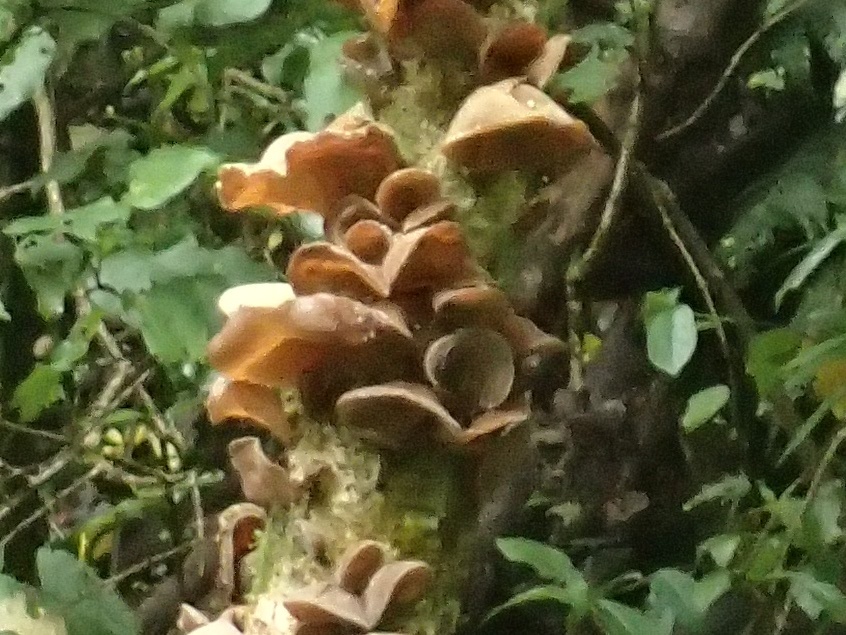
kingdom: Fungi
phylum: Basidiomycota
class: Agaricomycetes
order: Auriculariales
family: Auriculariaceae
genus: Auricularia
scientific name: Auricularia cornea
